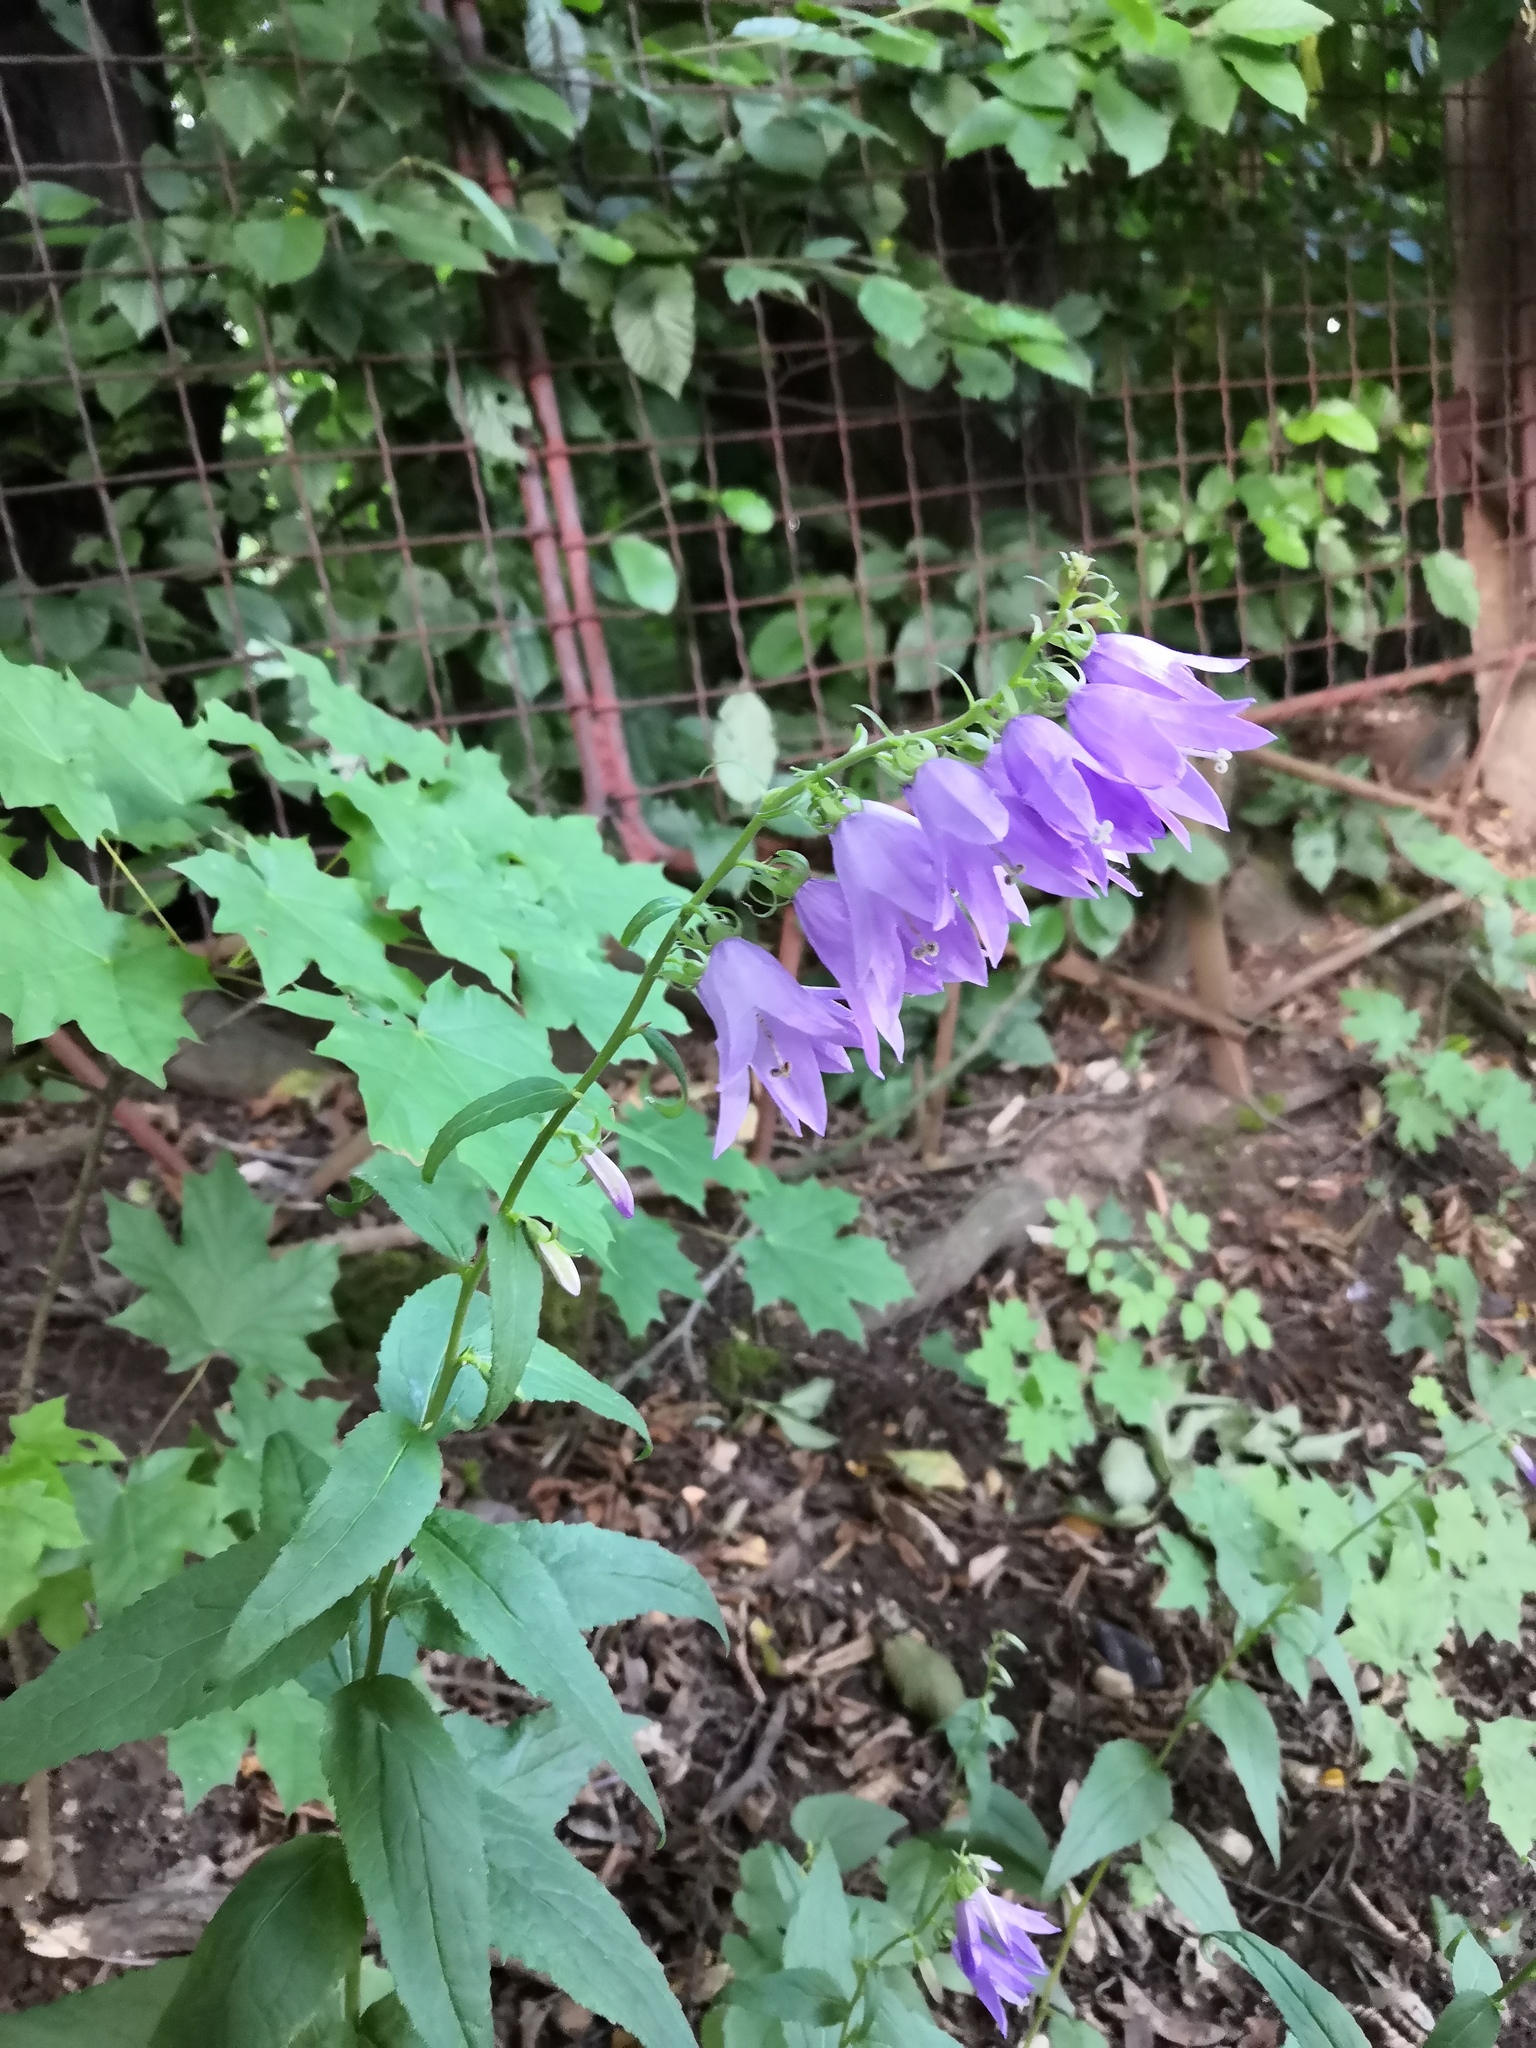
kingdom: Plantae
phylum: Tracheophyta
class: Magnoliopsida
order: Asterales
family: Campanulaceae
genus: Campanula
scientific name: Campanula rapunculoides
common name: Creeping bellflower
